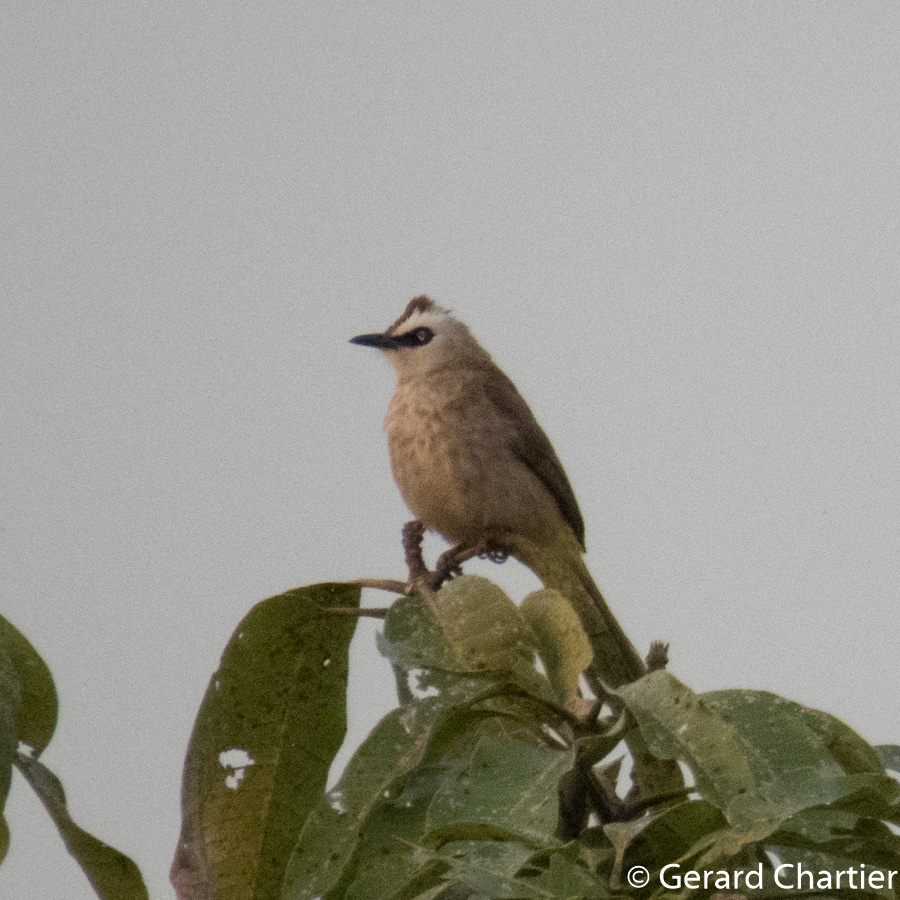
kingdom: Animalia
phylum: Chordata
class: Aves
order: Passeriformes
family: Pycnonotidae
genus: Pycnonotus
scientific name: Pycnonotus goiavier
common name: Yellow-vented bulbul
